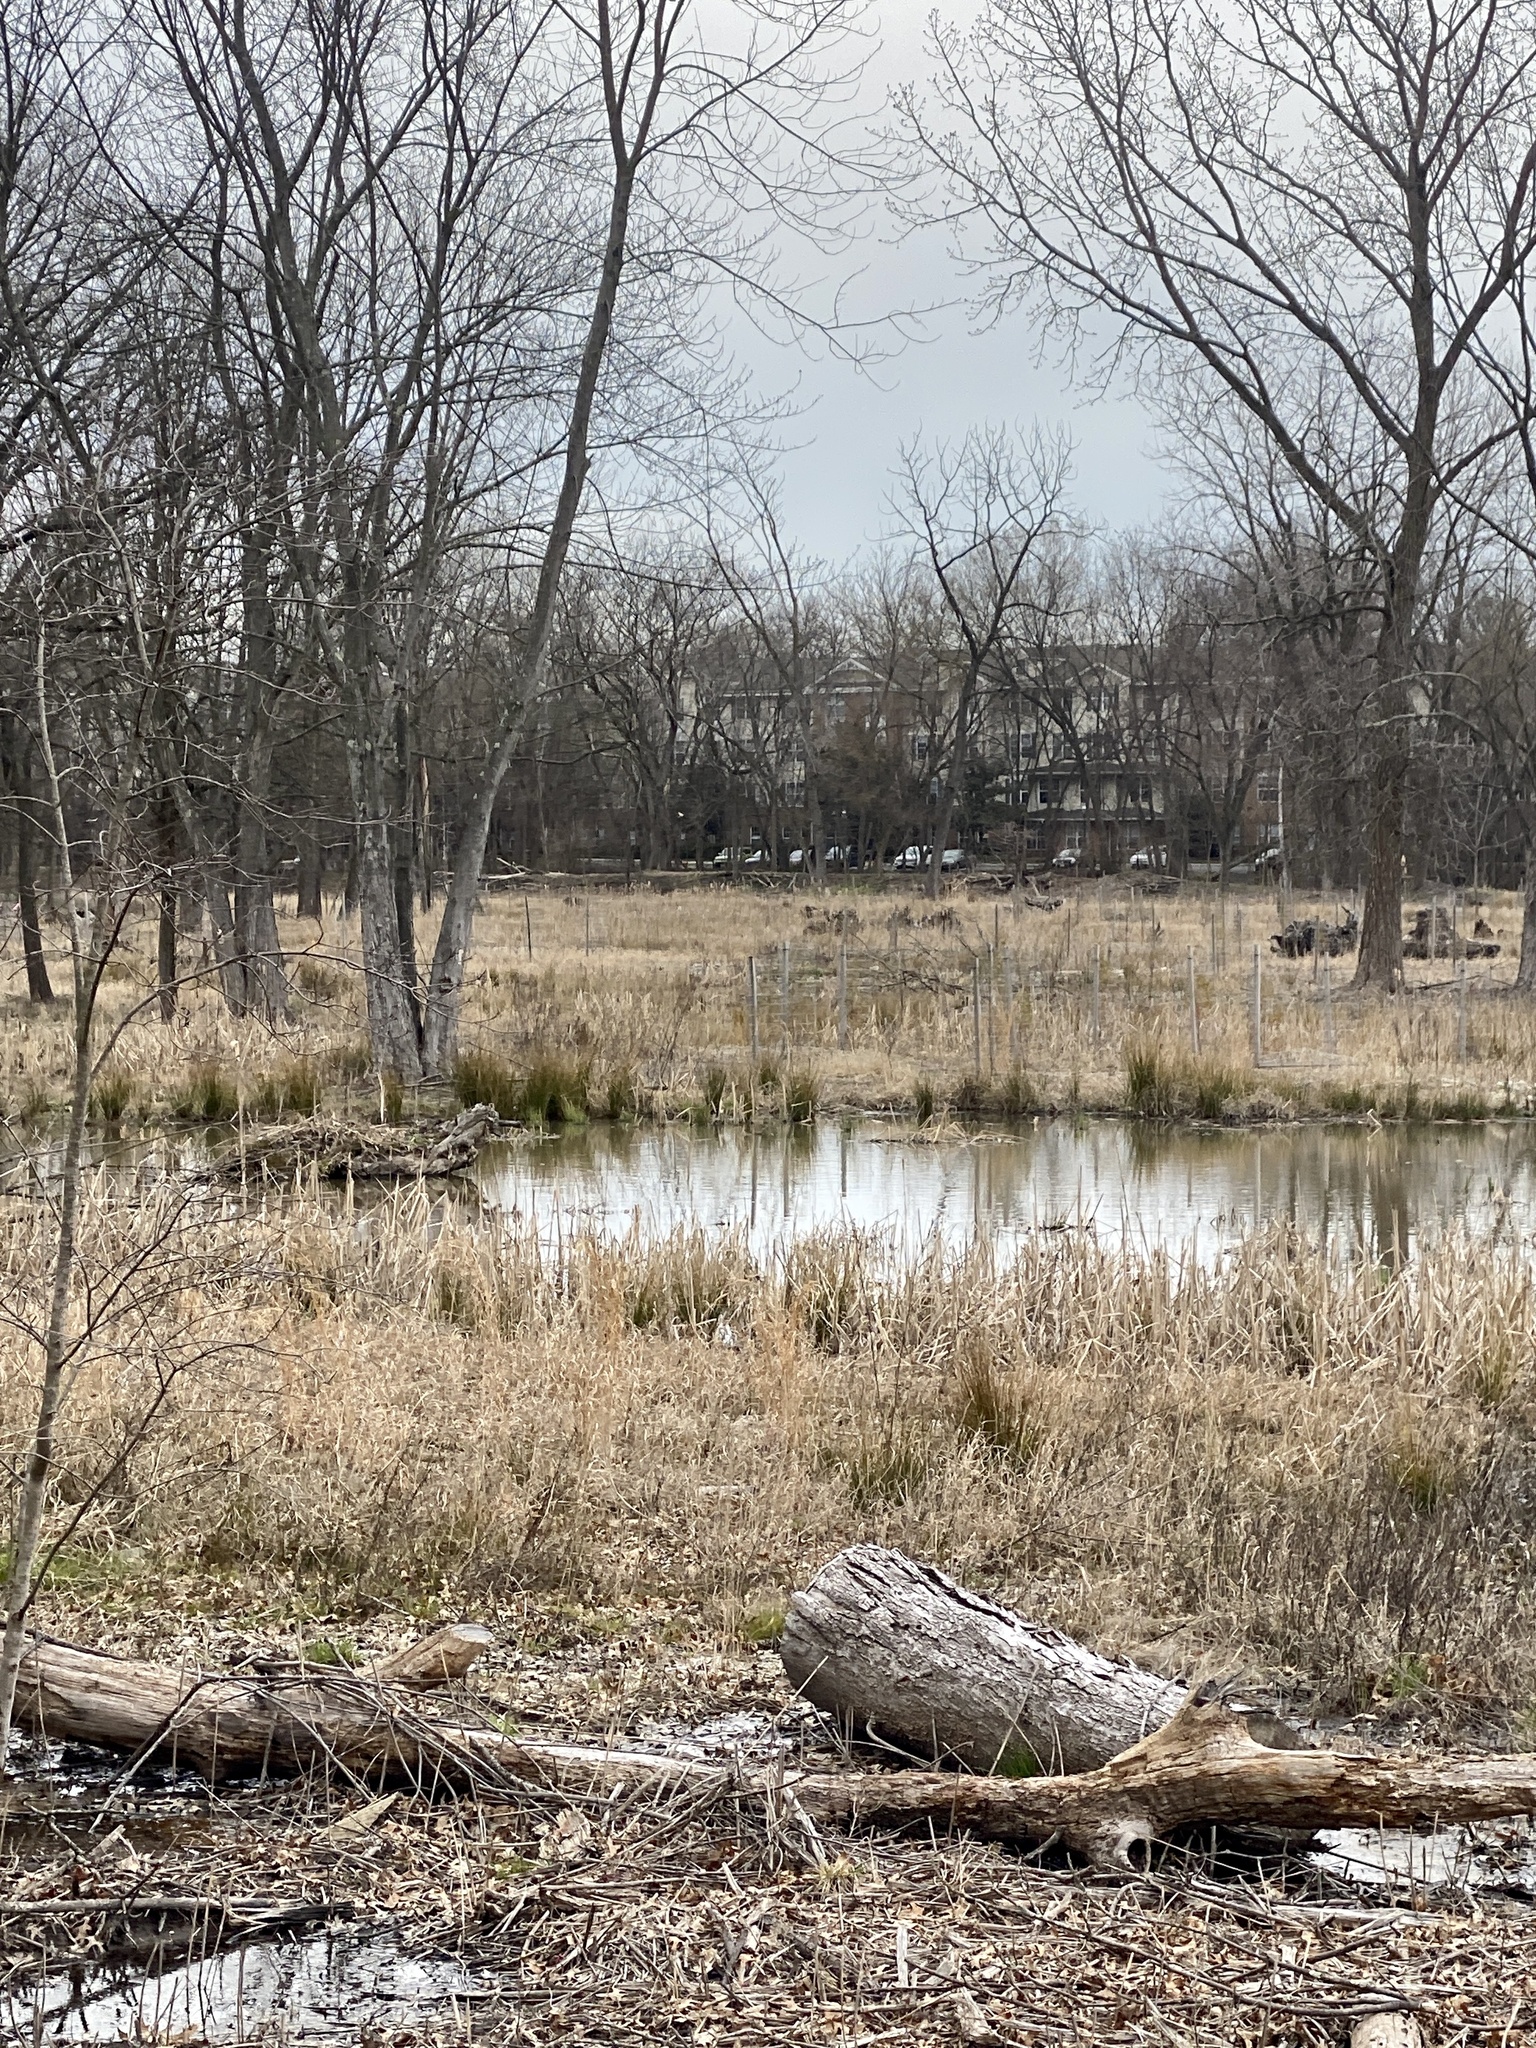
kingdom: Plantae
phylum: Tracheophyta
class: Liliopsida
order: Poales
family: Typhaceae
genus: Typha
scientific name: Typha
